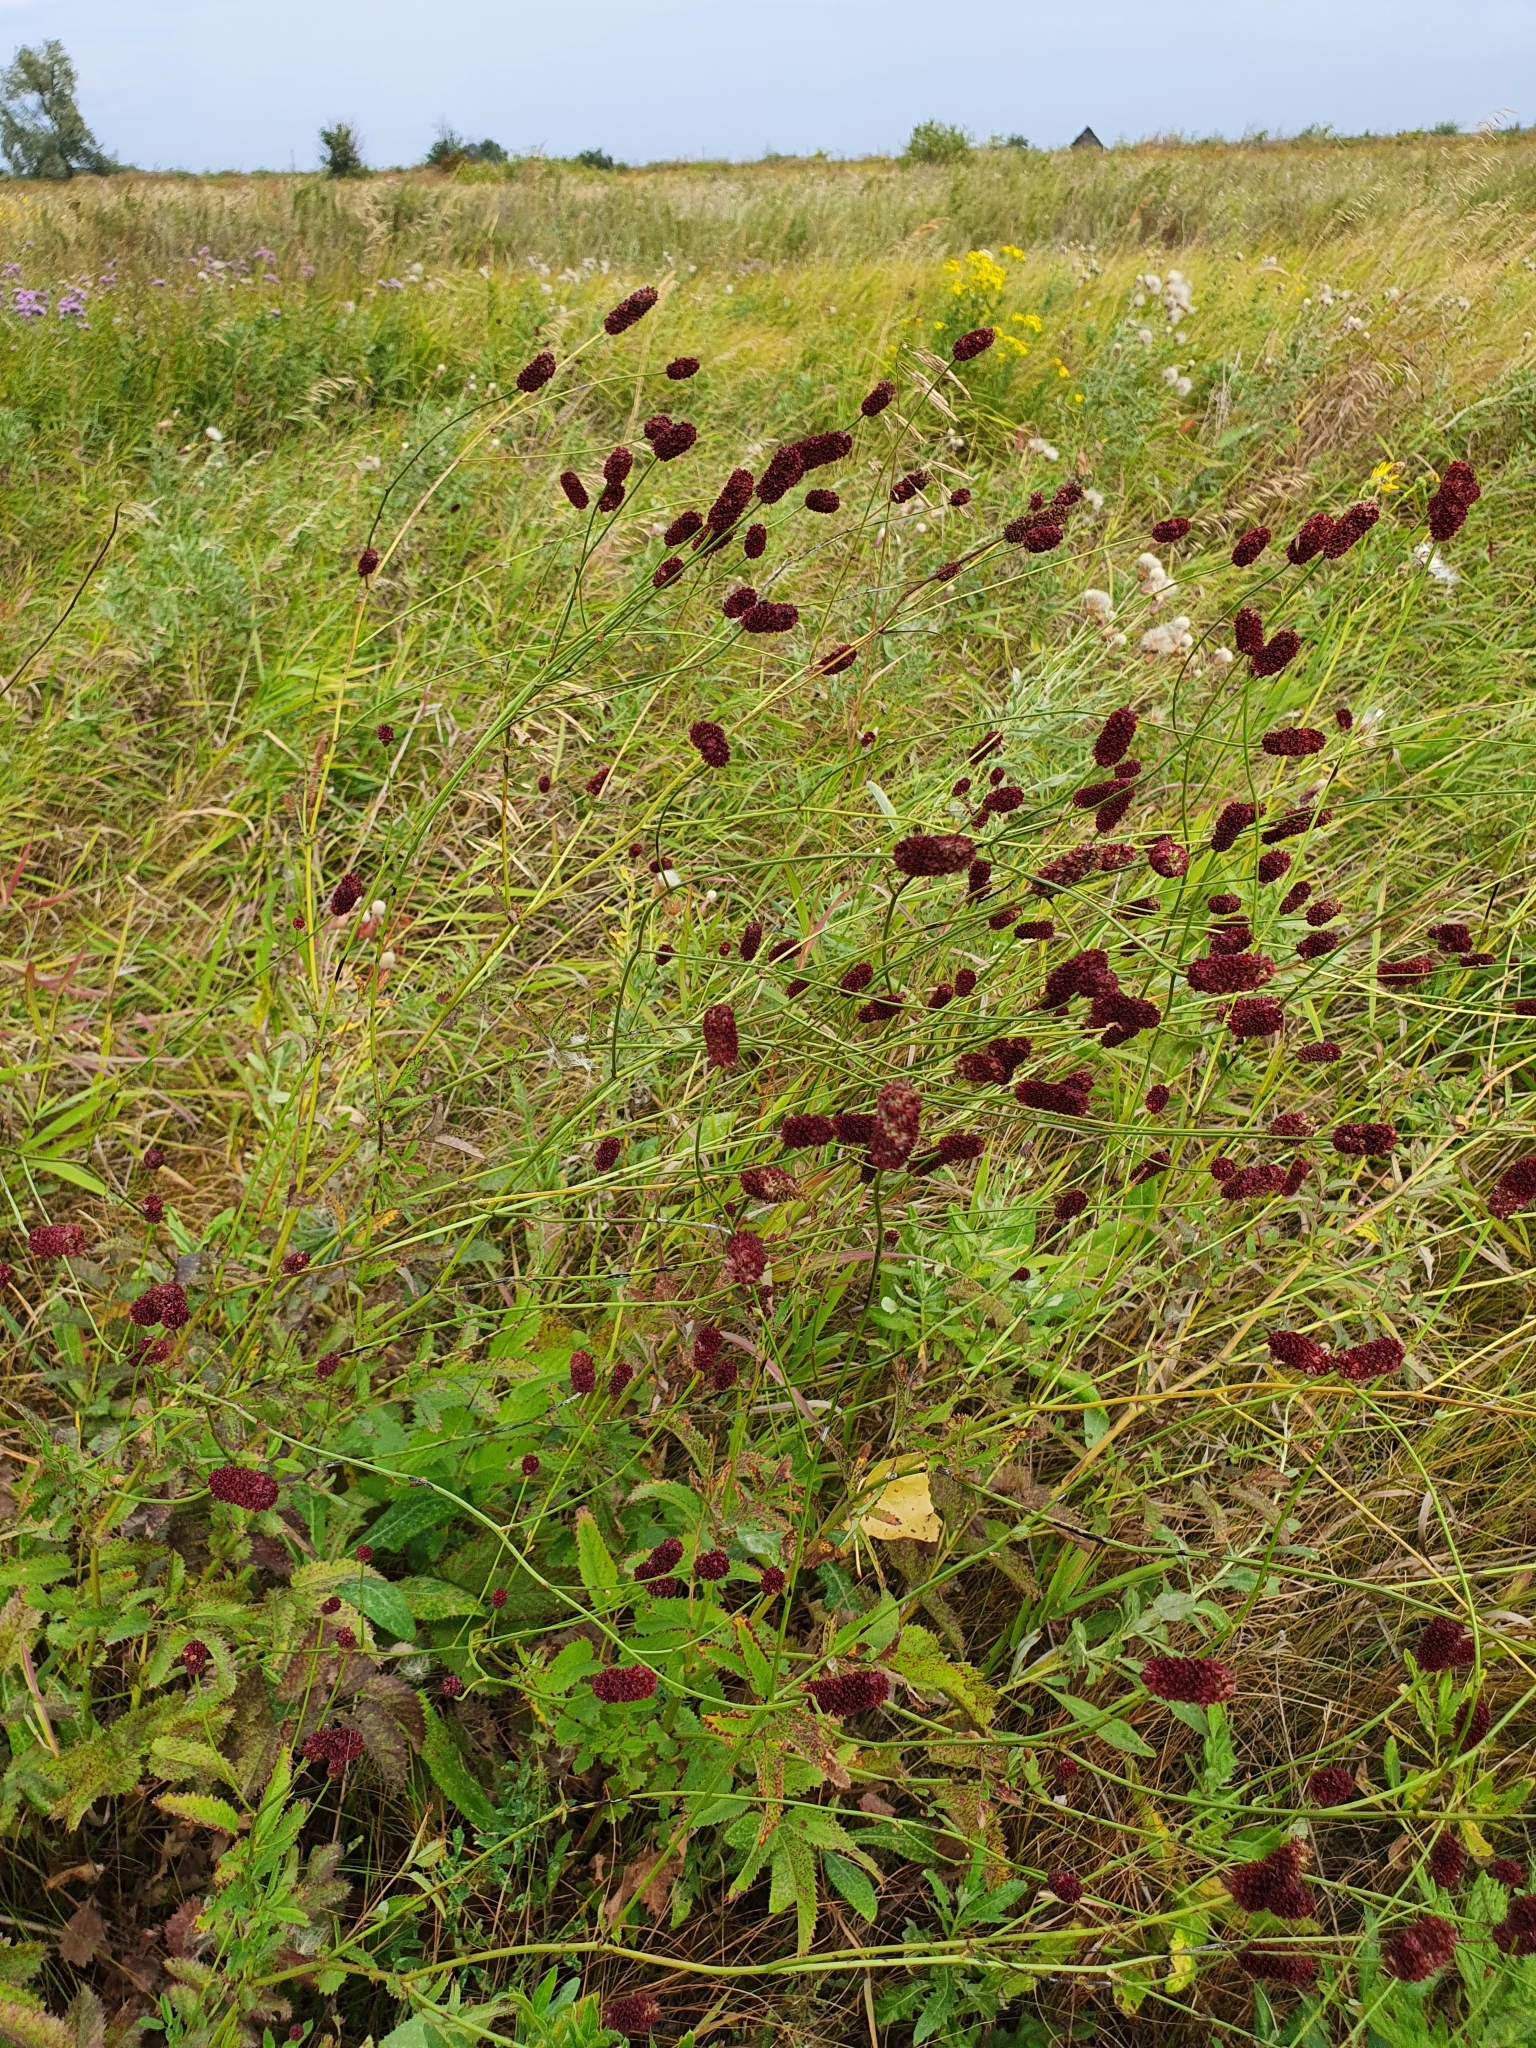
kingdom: Plantae
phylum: Tracheophyta
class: Magnoliopsida
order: Rosales
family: Rosaceae
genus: Sanguisorba
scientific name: Sanguisorba officinalis
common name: Great burnet
